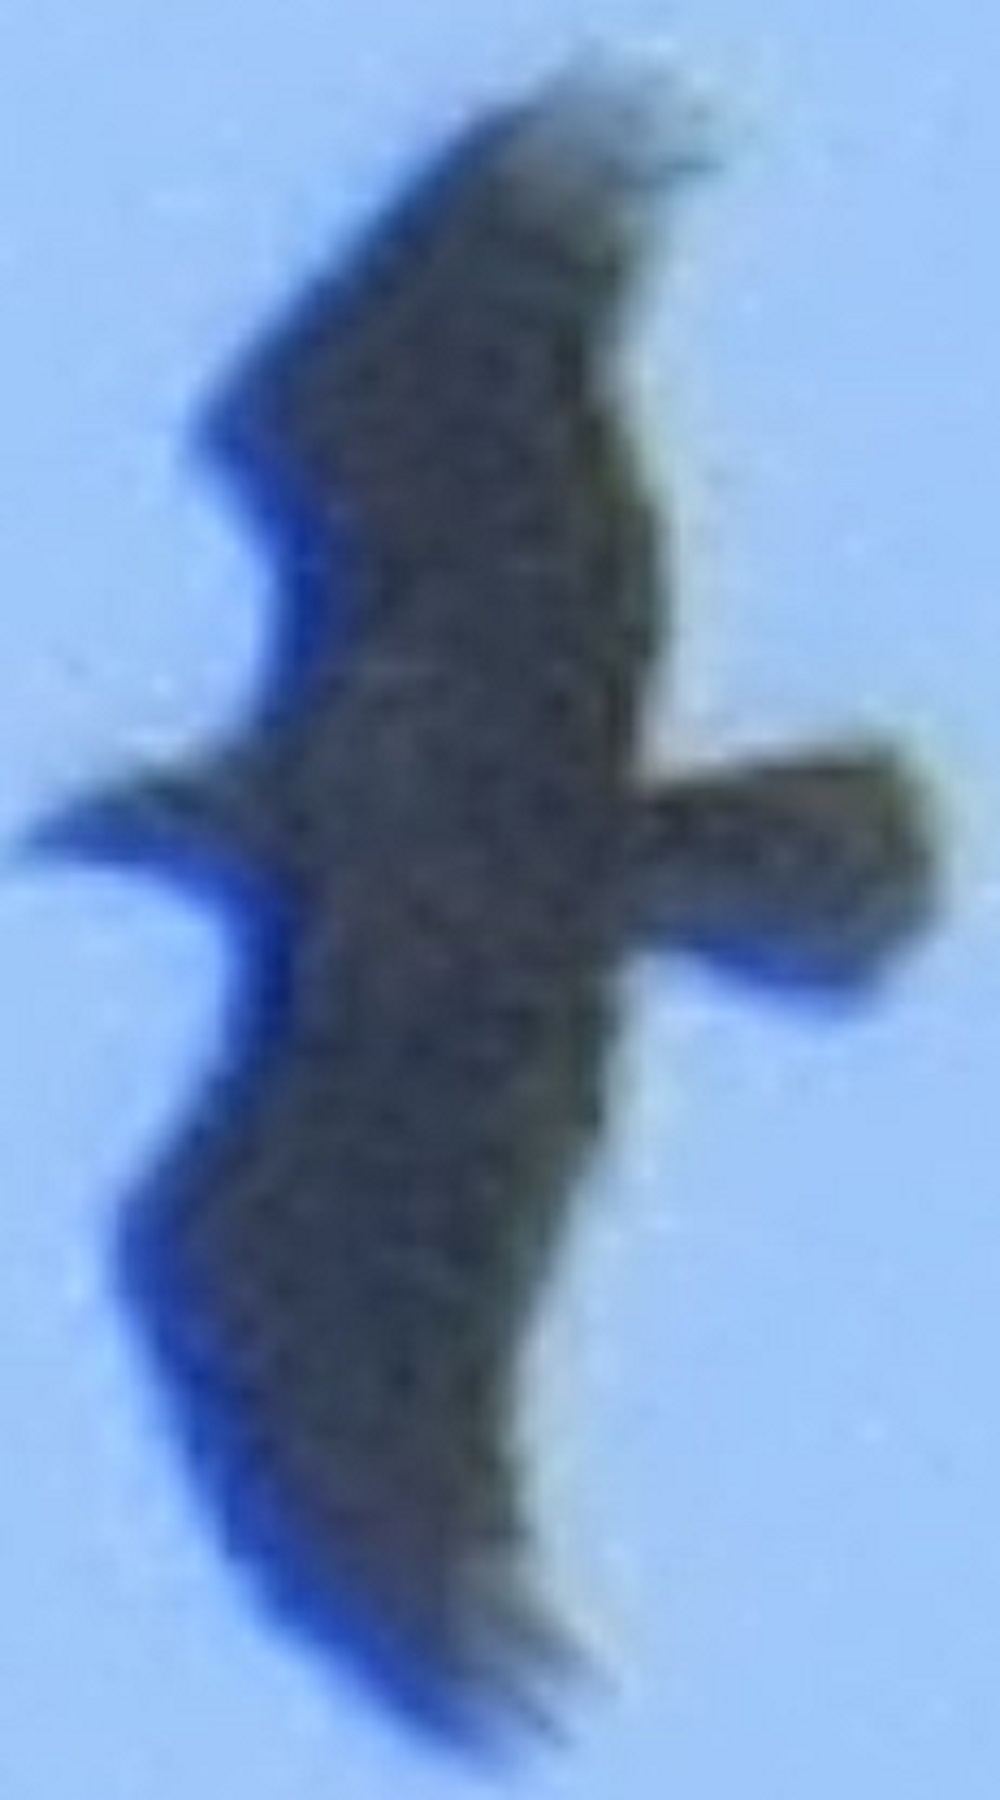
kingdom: Animalia
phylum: Chordata
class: Aves
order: Accipitriformes
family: Accipitridae
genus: Haliaeetus
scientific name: Haliaeetus leucocephalus
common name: Bald eagle
